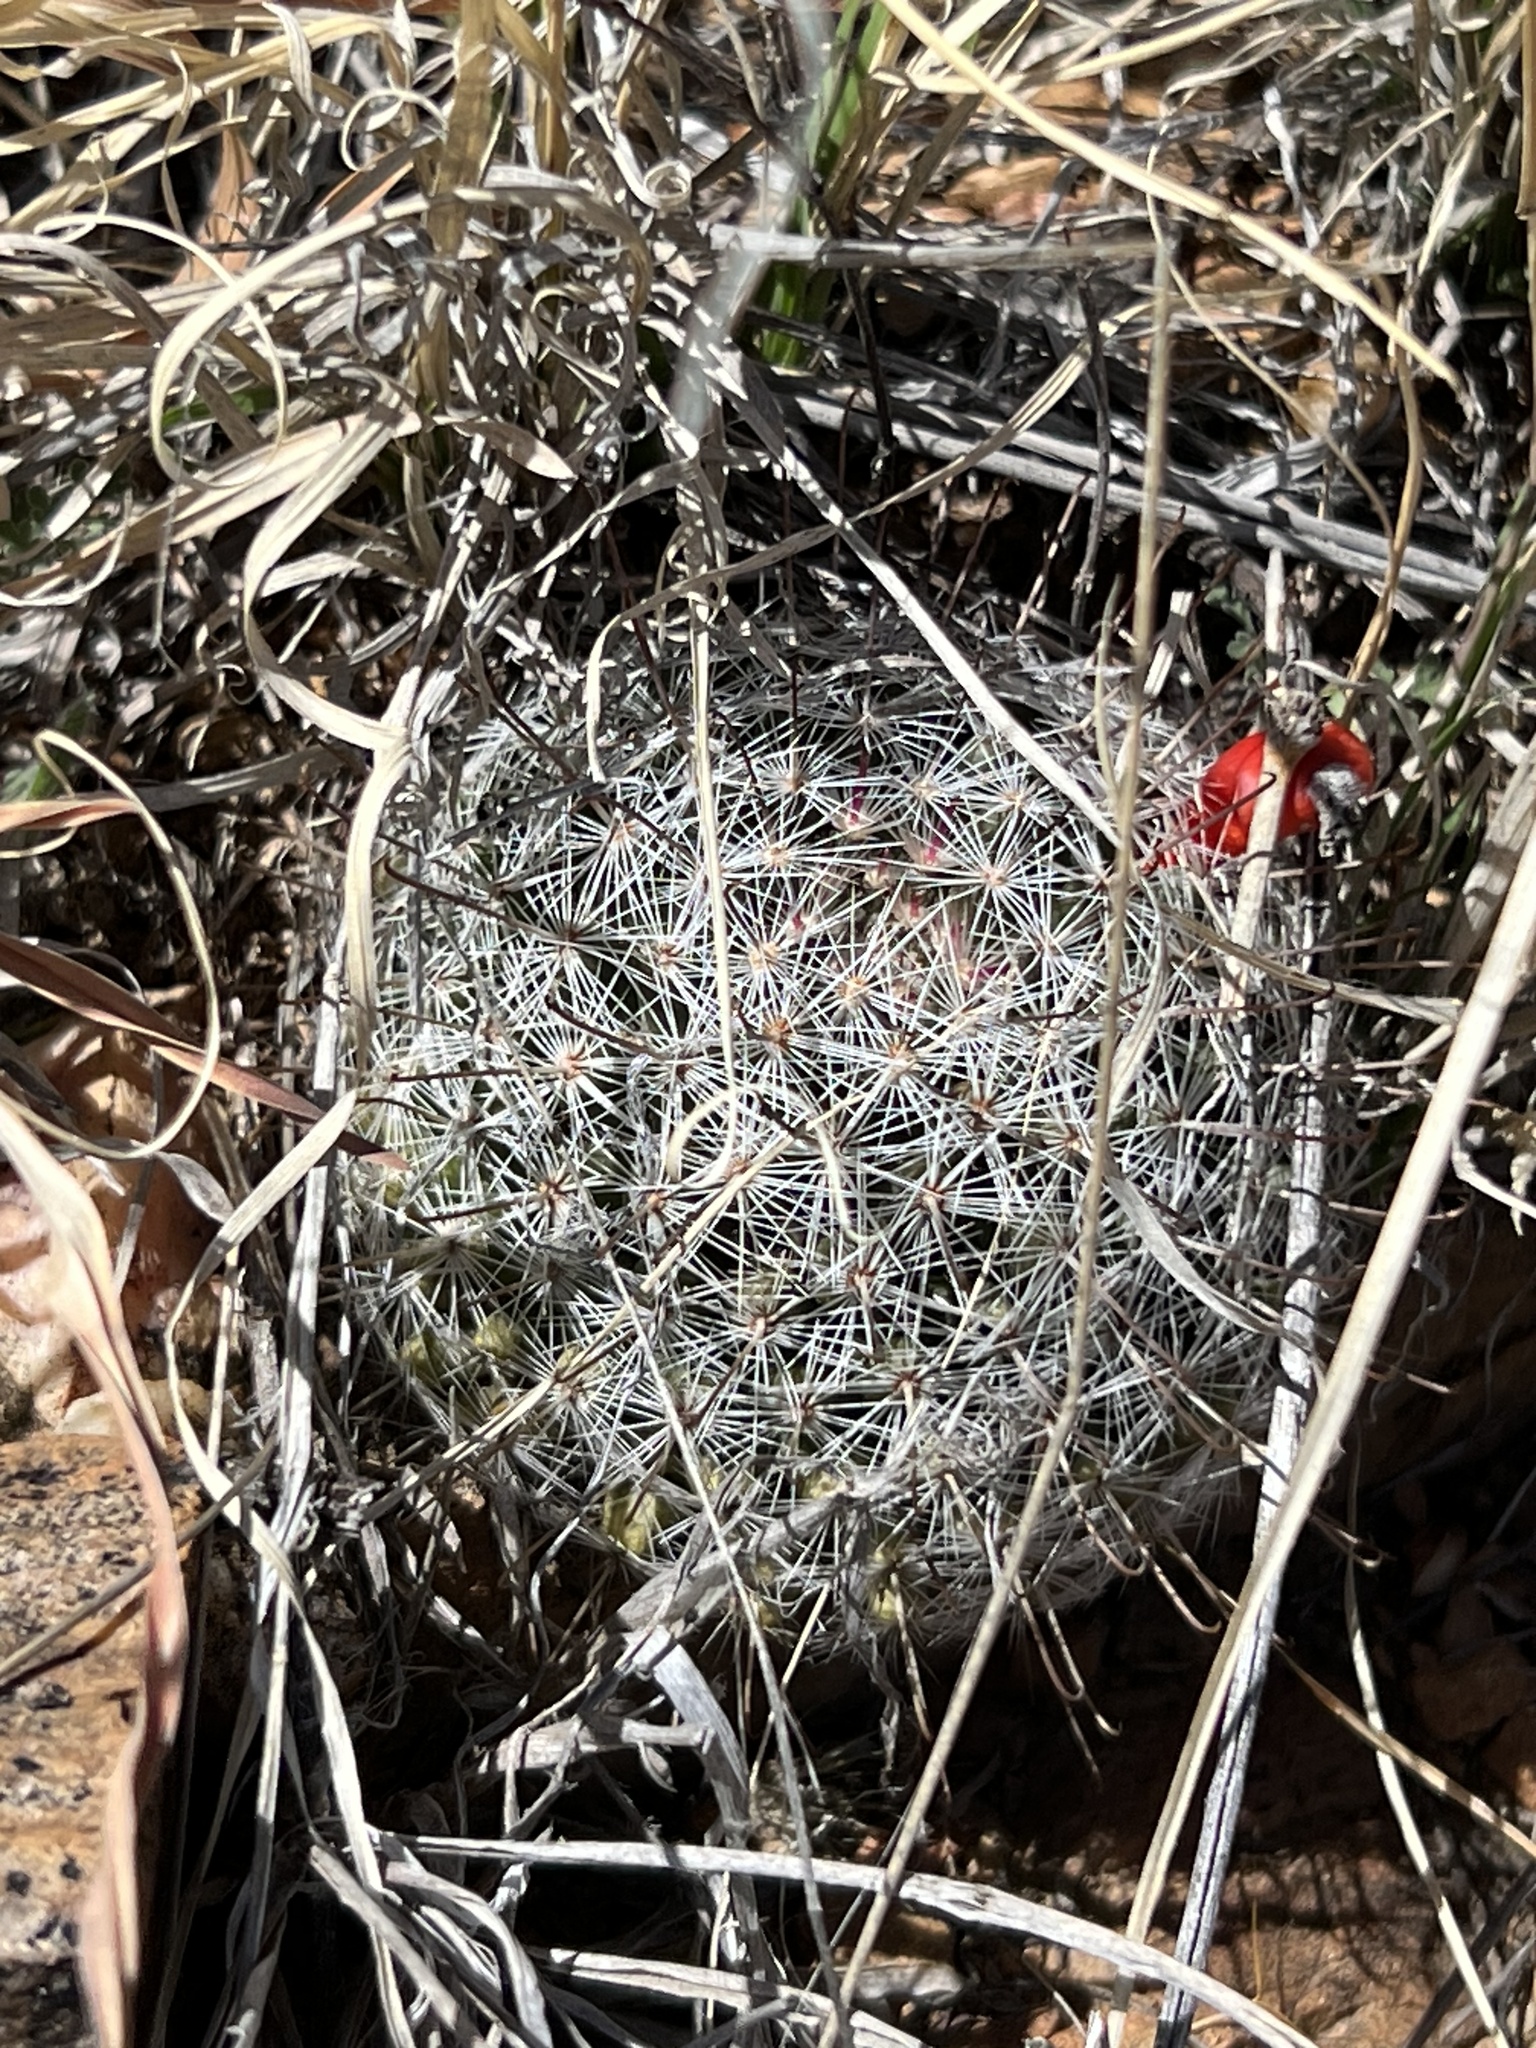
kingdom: Plantae
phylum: Tracheophyta
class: Magnoliopsida
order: Caryophyllales
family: Cactaceae
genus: Cochemiea
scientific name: Cochemiea grahamii
